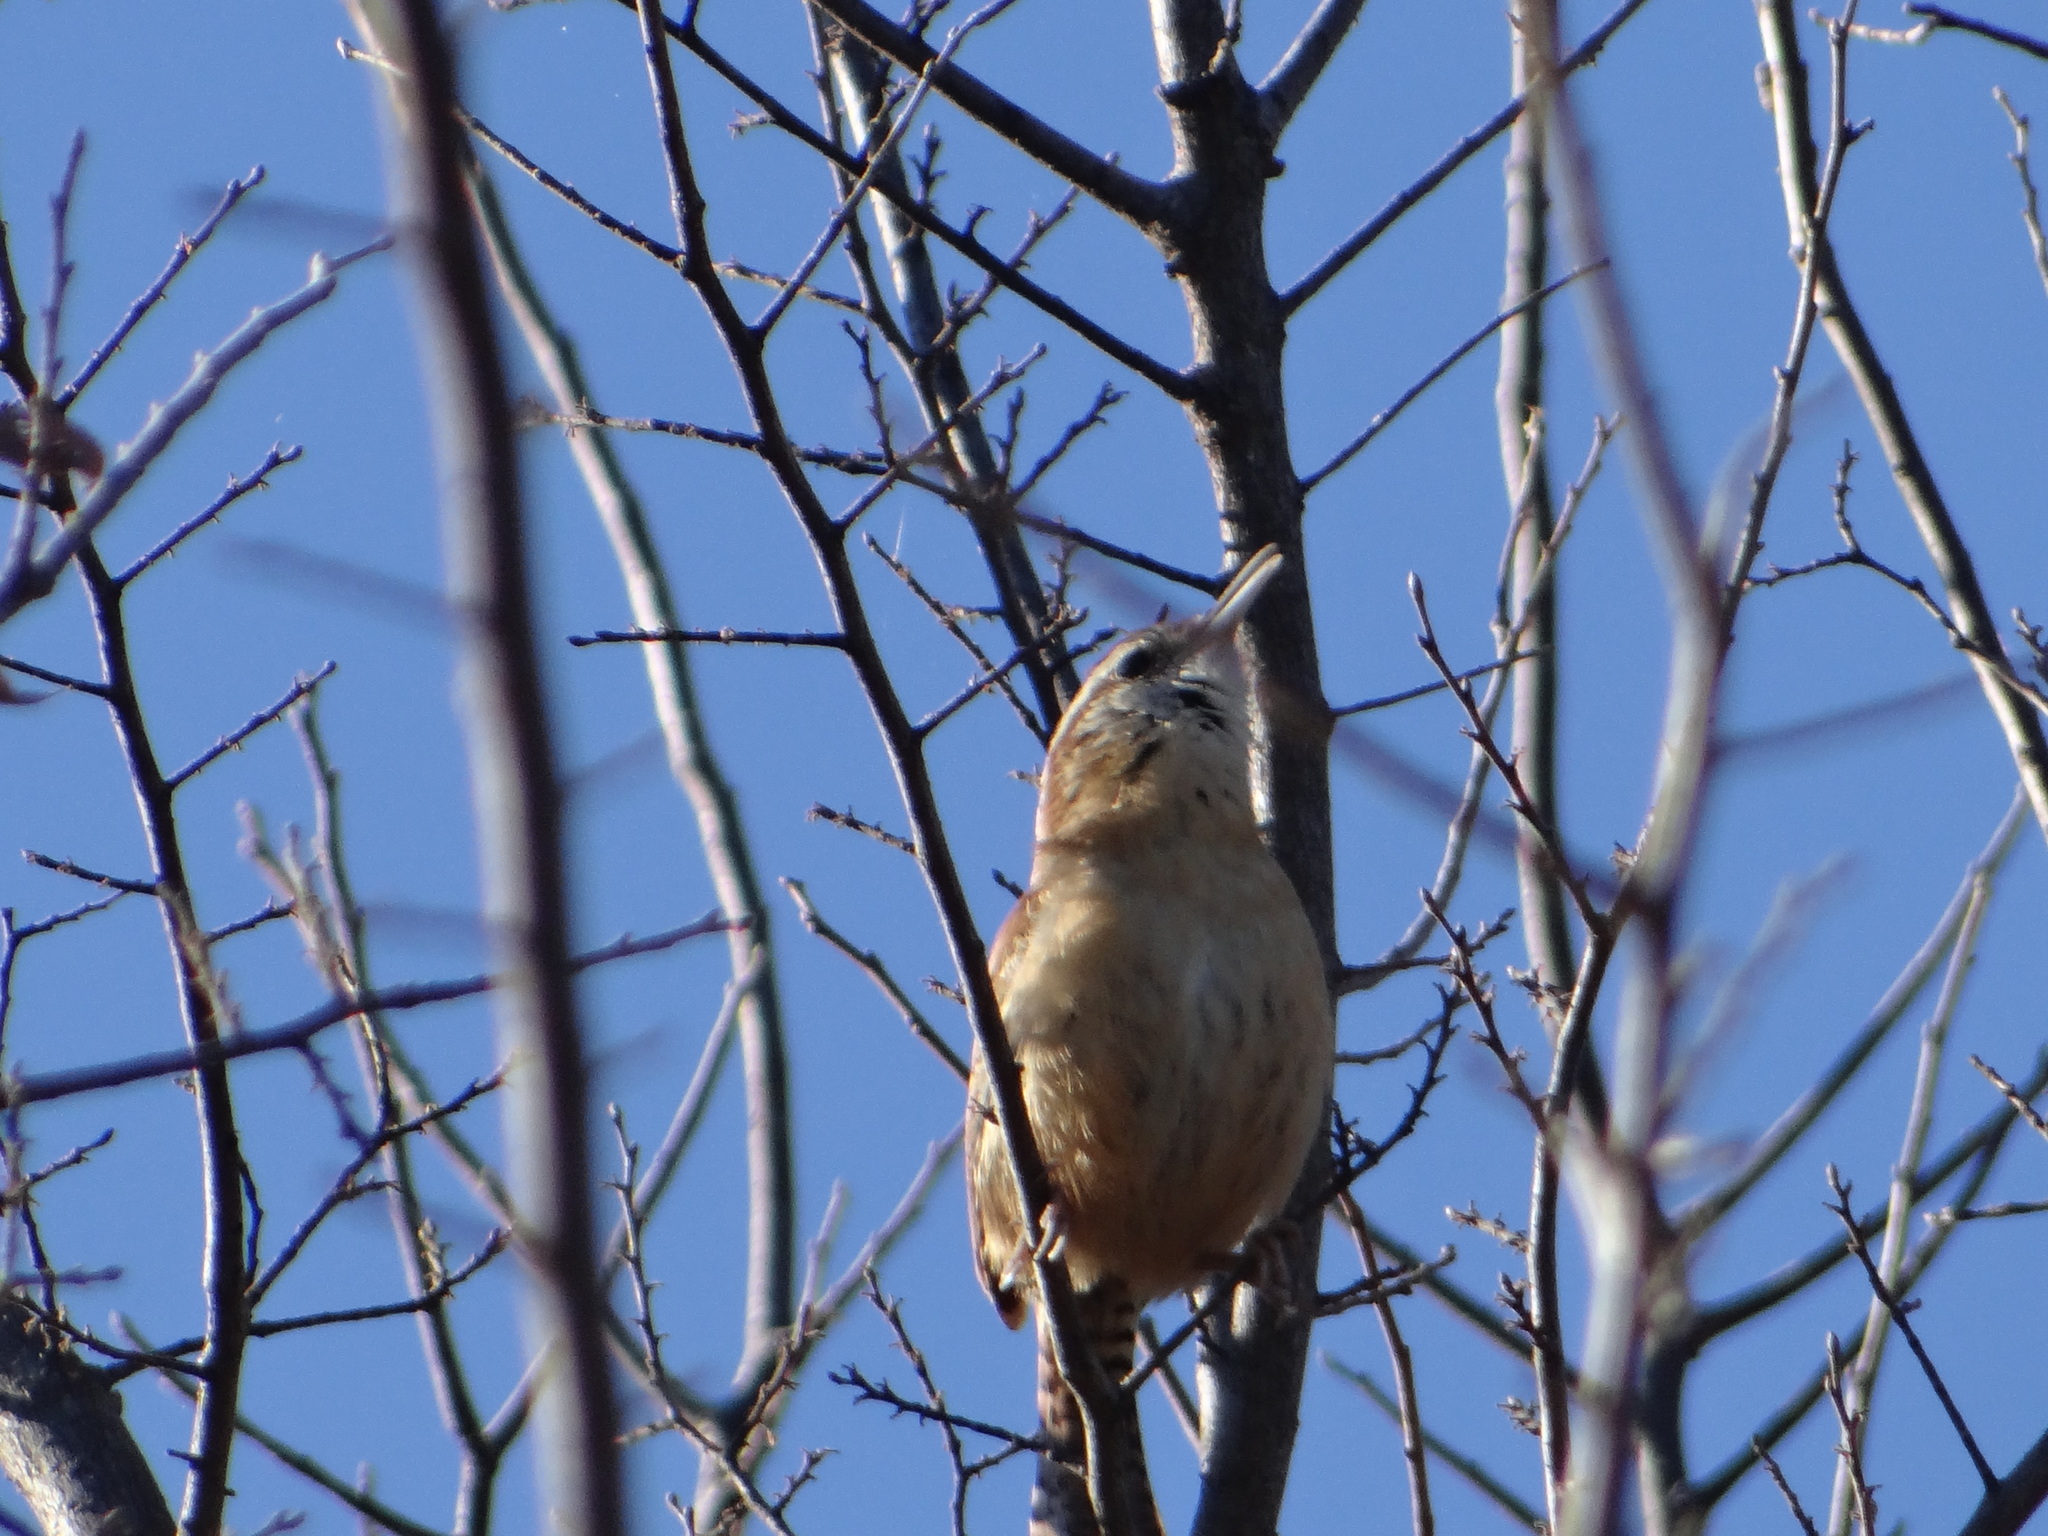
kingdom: Animalia
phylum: Chordata
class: Aves
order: Passeriformes
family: Troglodytidae
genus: Thryothorus
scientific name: Thryothorus ludovicianus
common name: Carolina wren
